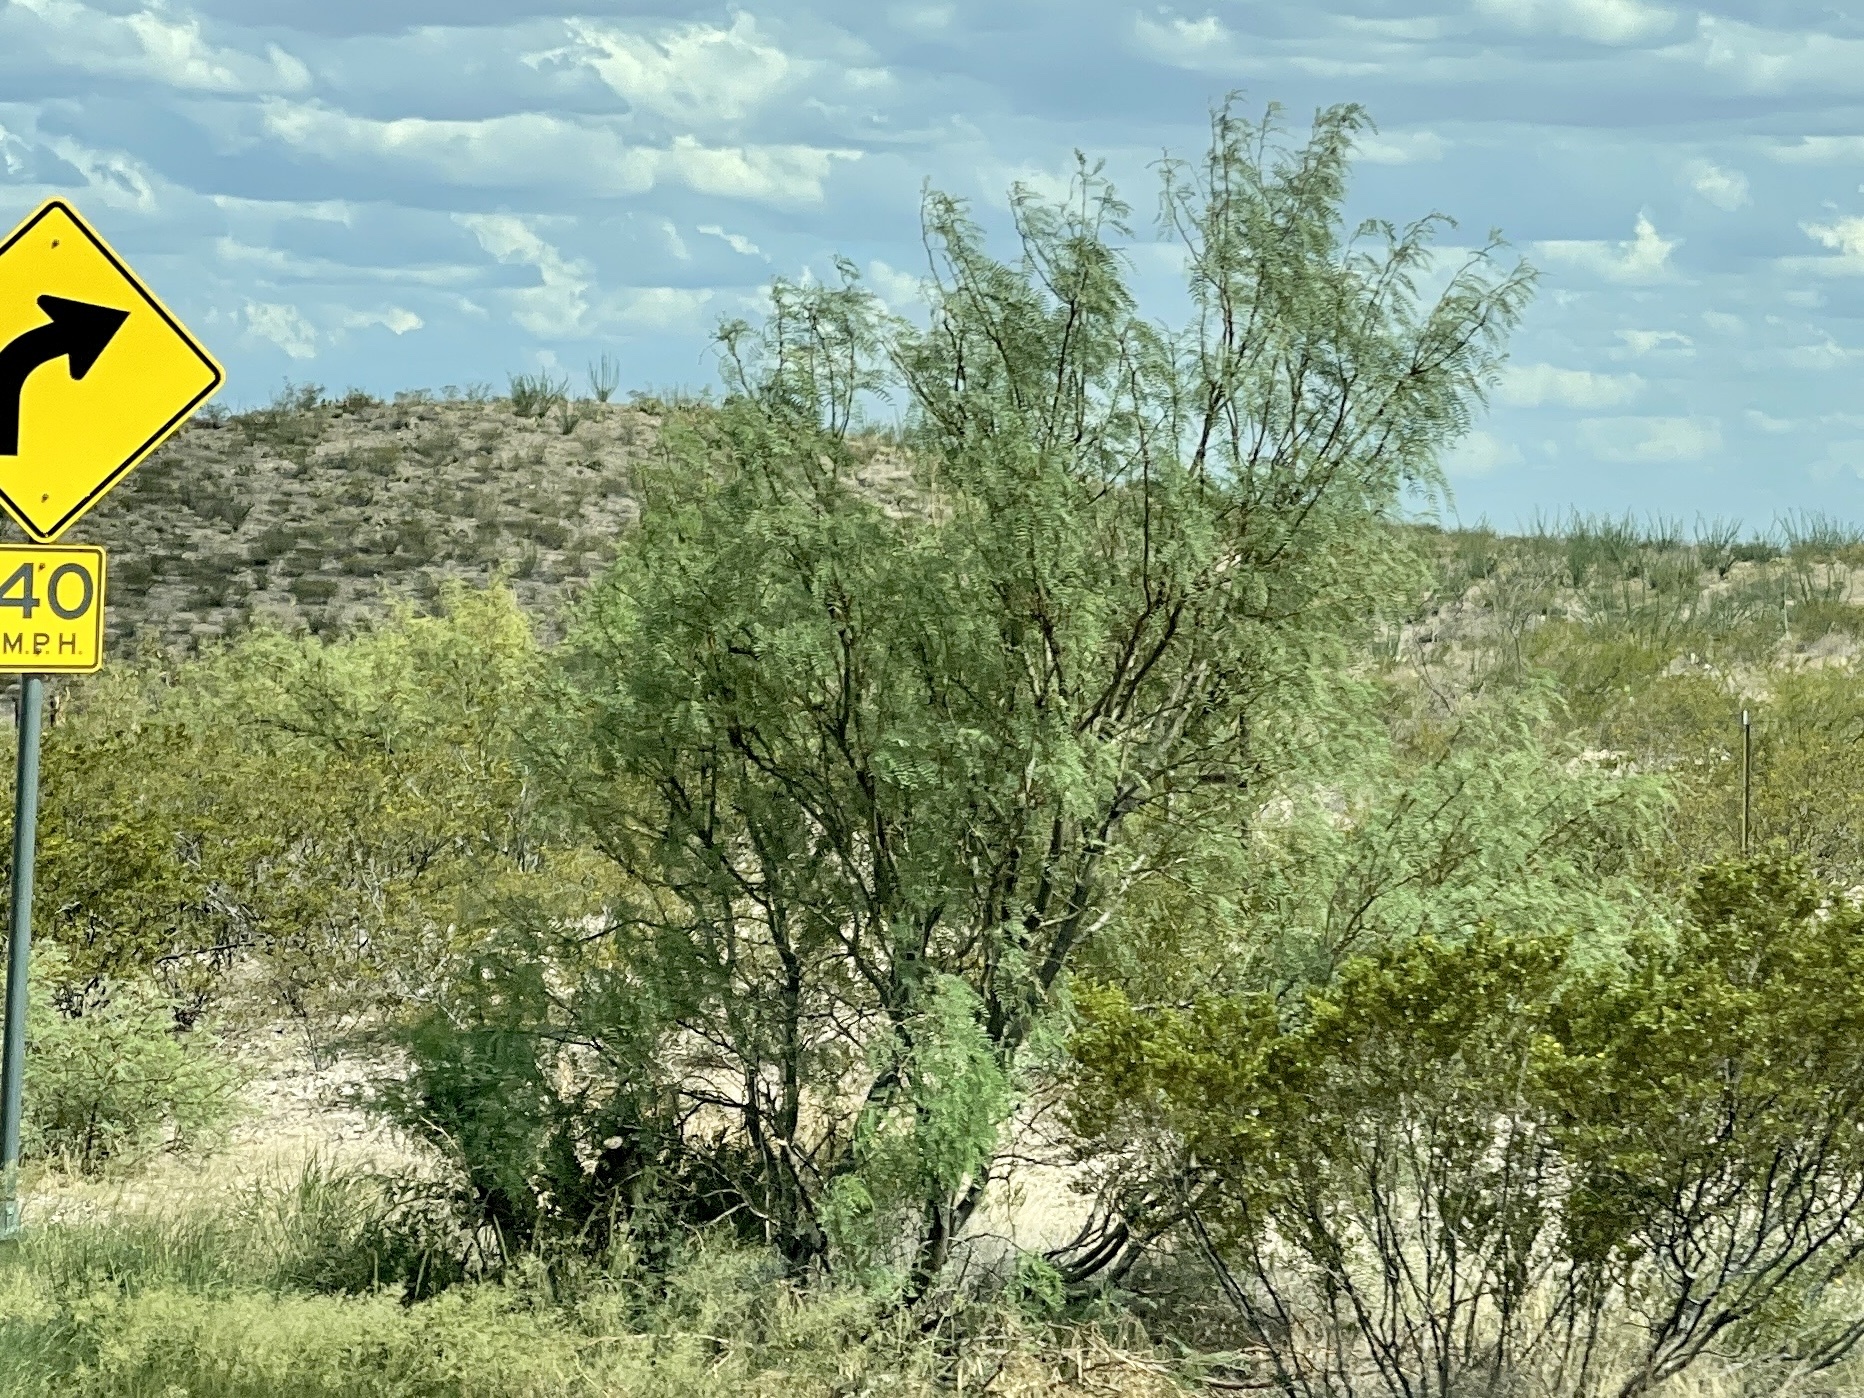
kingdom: Plantae
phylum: Tracheophyta
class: Magnoliopsida
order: Fabales
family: Fabaceae
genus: Prosopis
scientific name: Prosopis glandulosa
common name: Honey mesquite
